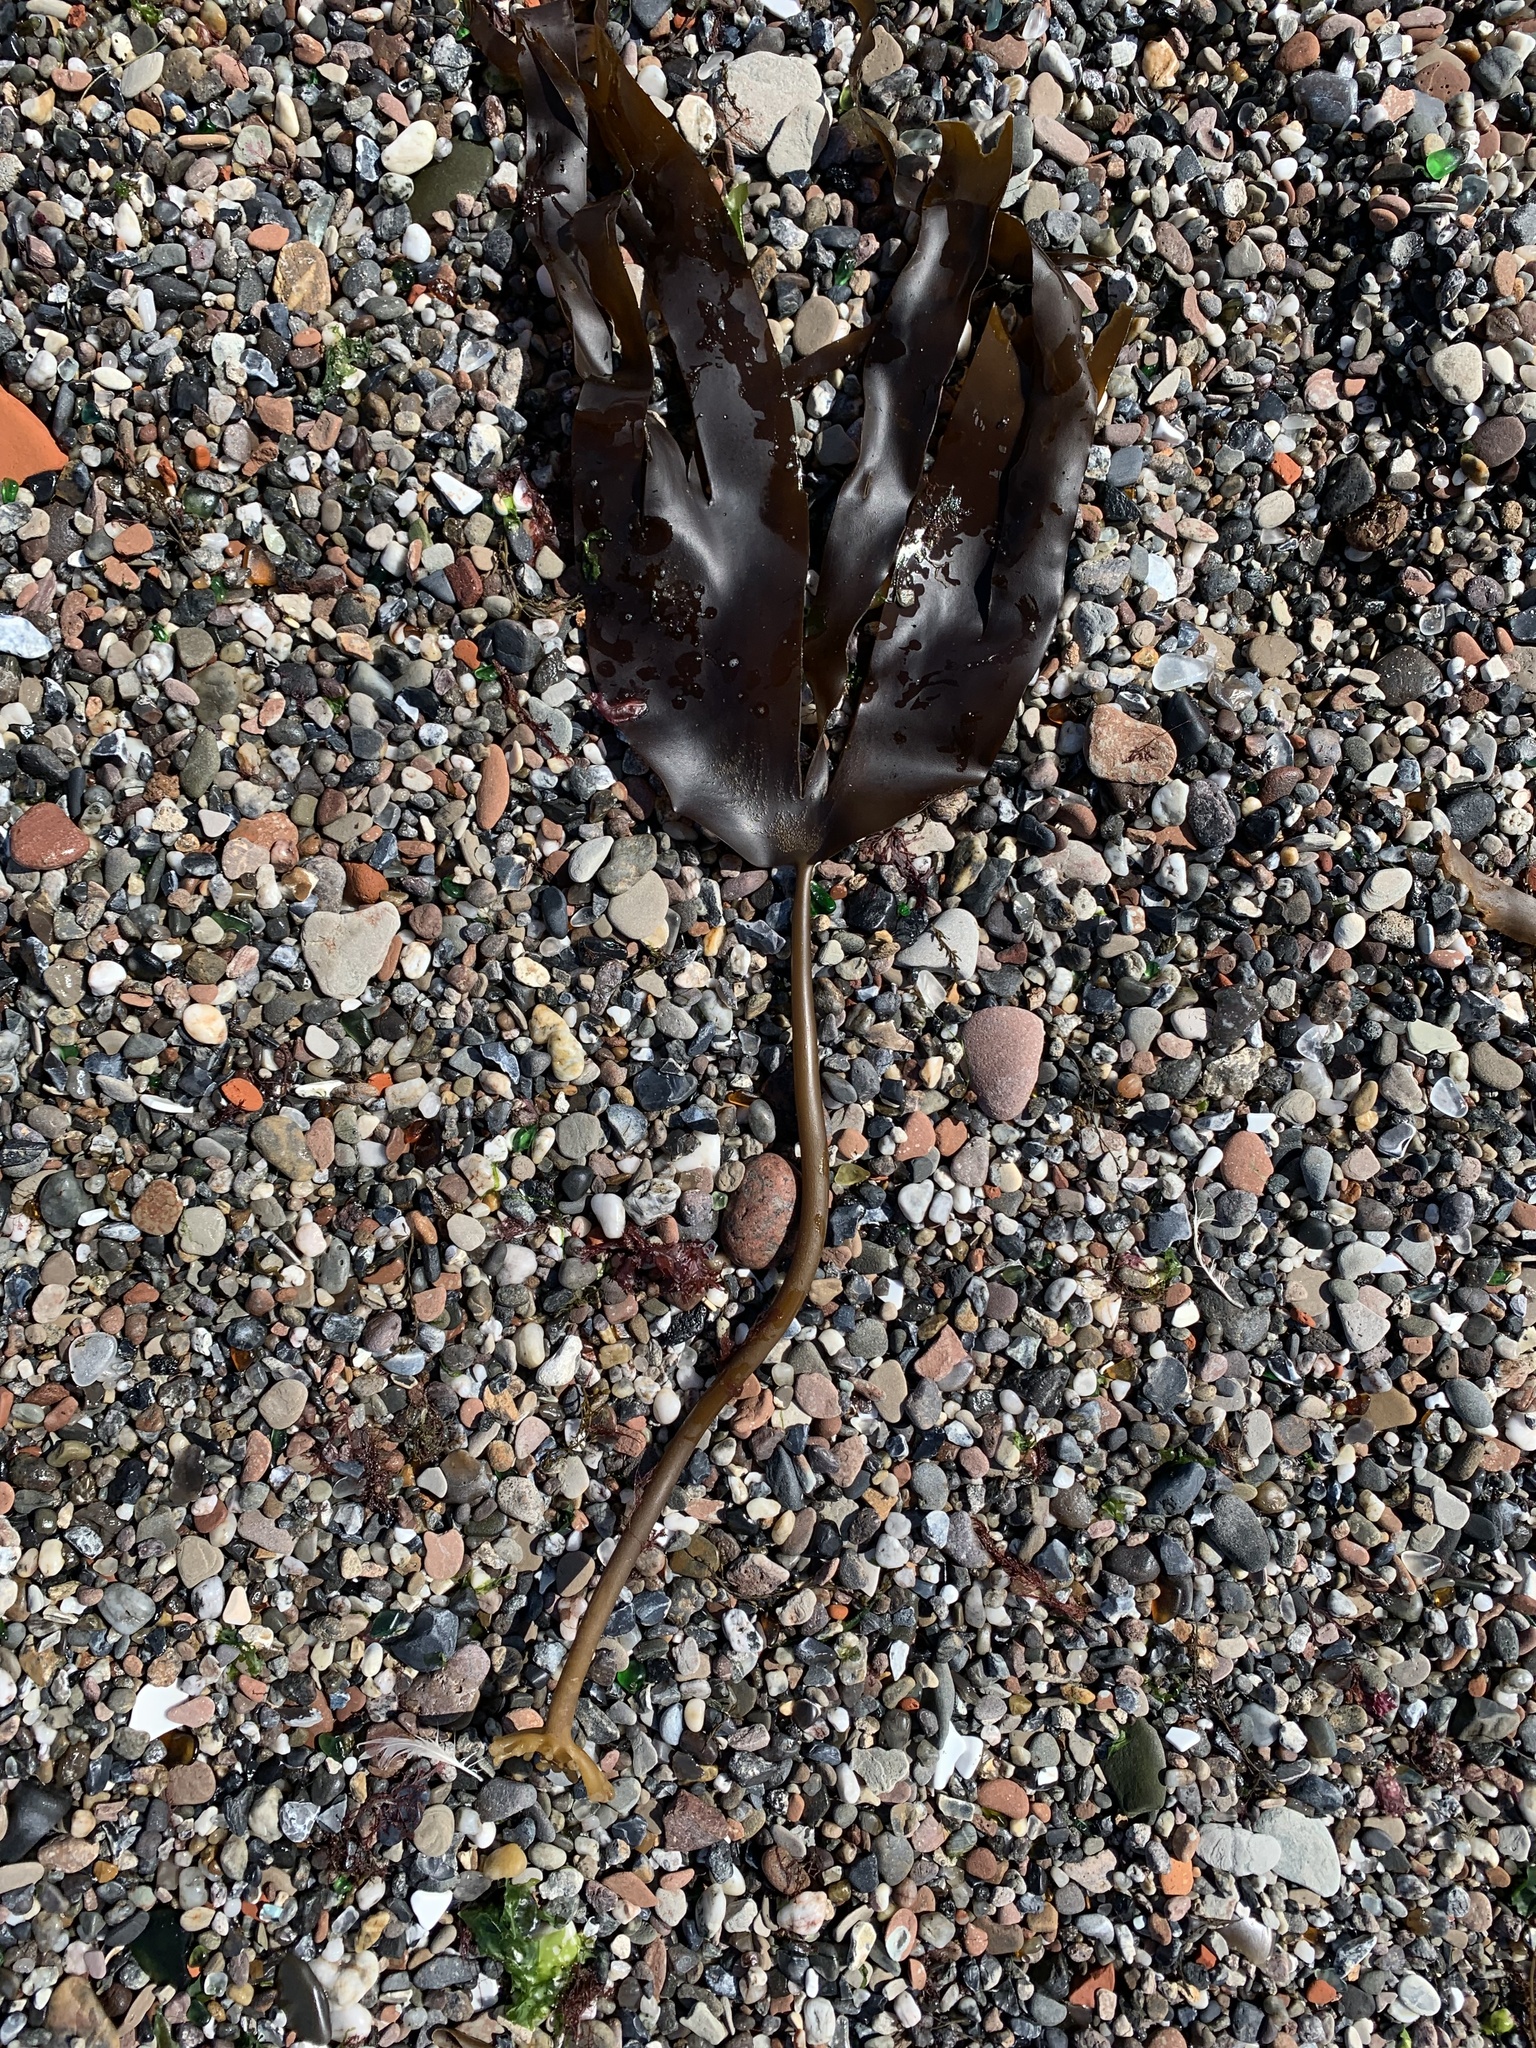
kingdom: Chromista
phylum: Ochrophyta
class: Phaeophyceae
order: Laminariales
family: Laminariaceae
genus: Laminaria
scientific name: Laminaria digitata
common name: Oarweed
